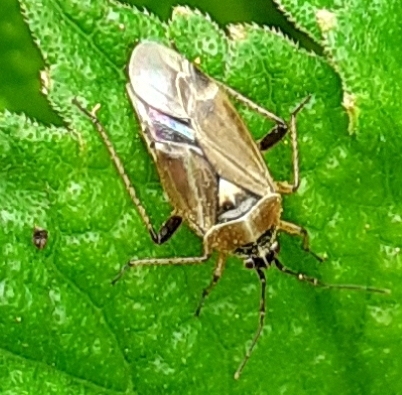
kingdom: Animalia
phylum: Arthropoda
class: Insecta
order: Hemiptera
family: Miridae
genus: Harpocera
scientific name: Harpocera thoracica
